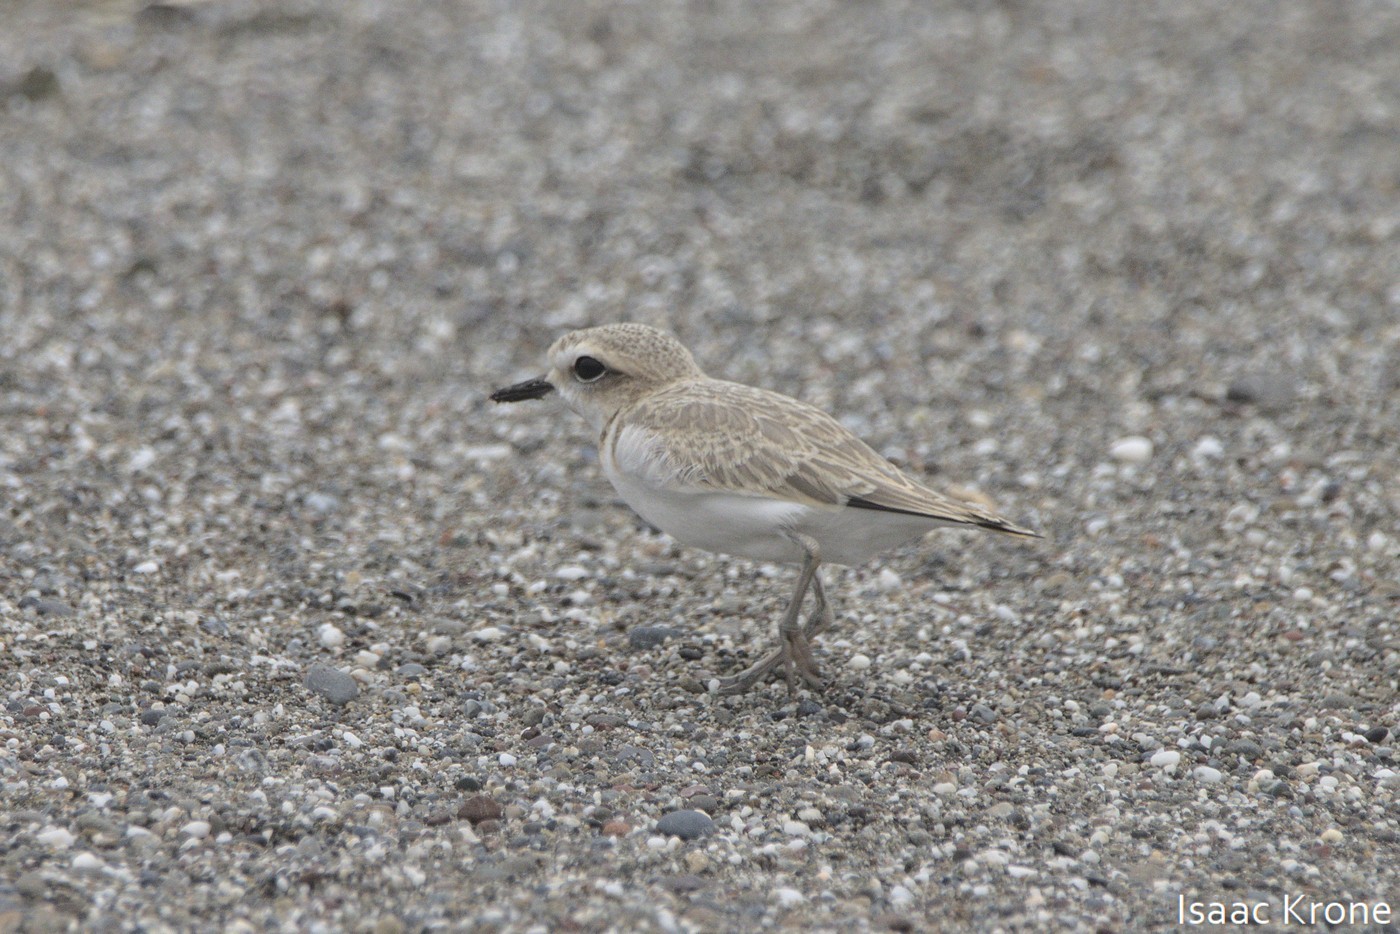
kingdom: Animalia
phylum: Chordata
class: Aves
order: Charadriiformes
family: Charadriidae
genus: Anarhynchus
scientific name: Anarhynchus
